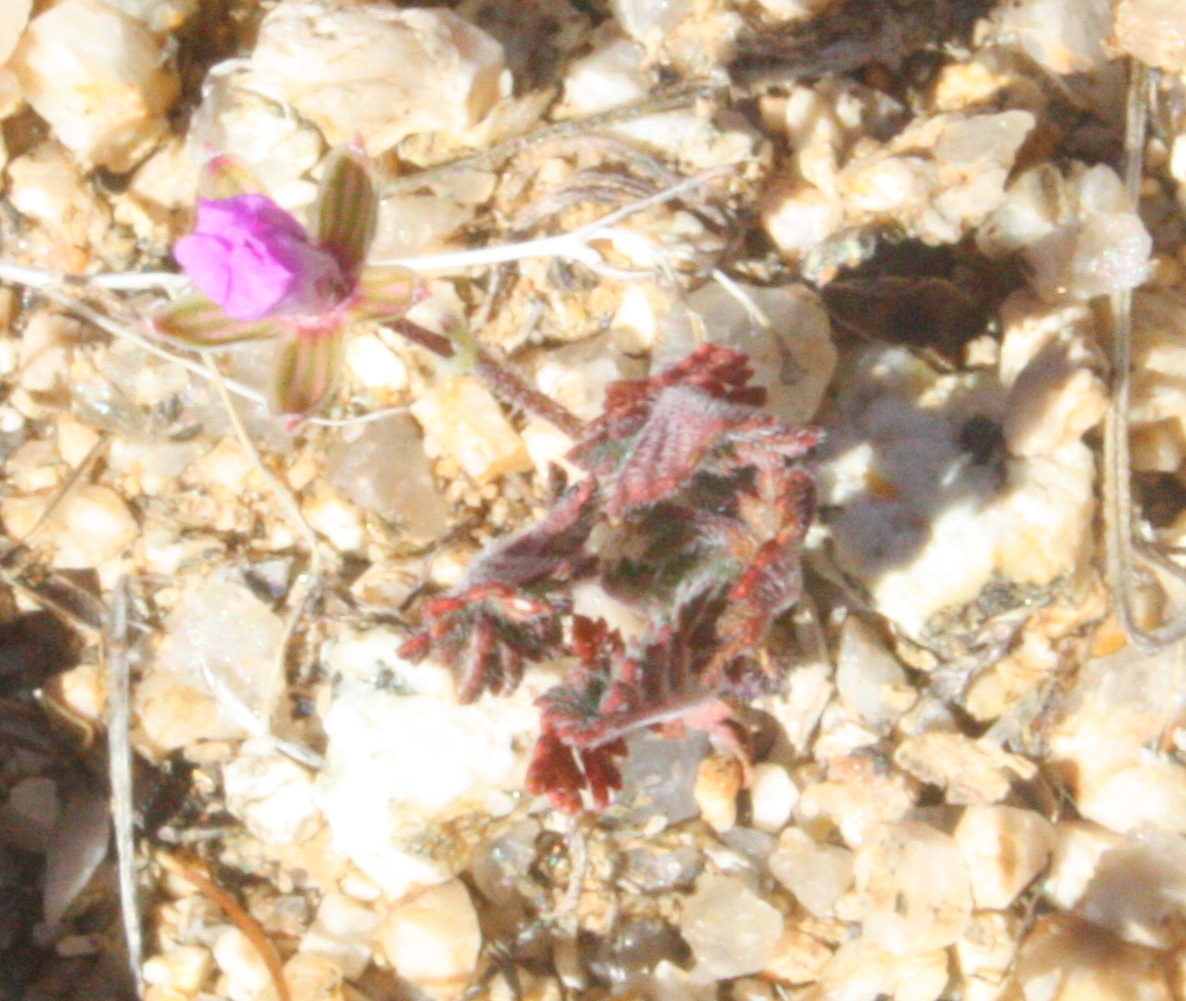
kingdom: Plantae
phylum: Tracheophyta
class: Magnoliopsida
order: Geraniales
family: Geraniaceae
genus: Erodium
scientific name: Erodium texanum
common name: Texas stork's-bill
